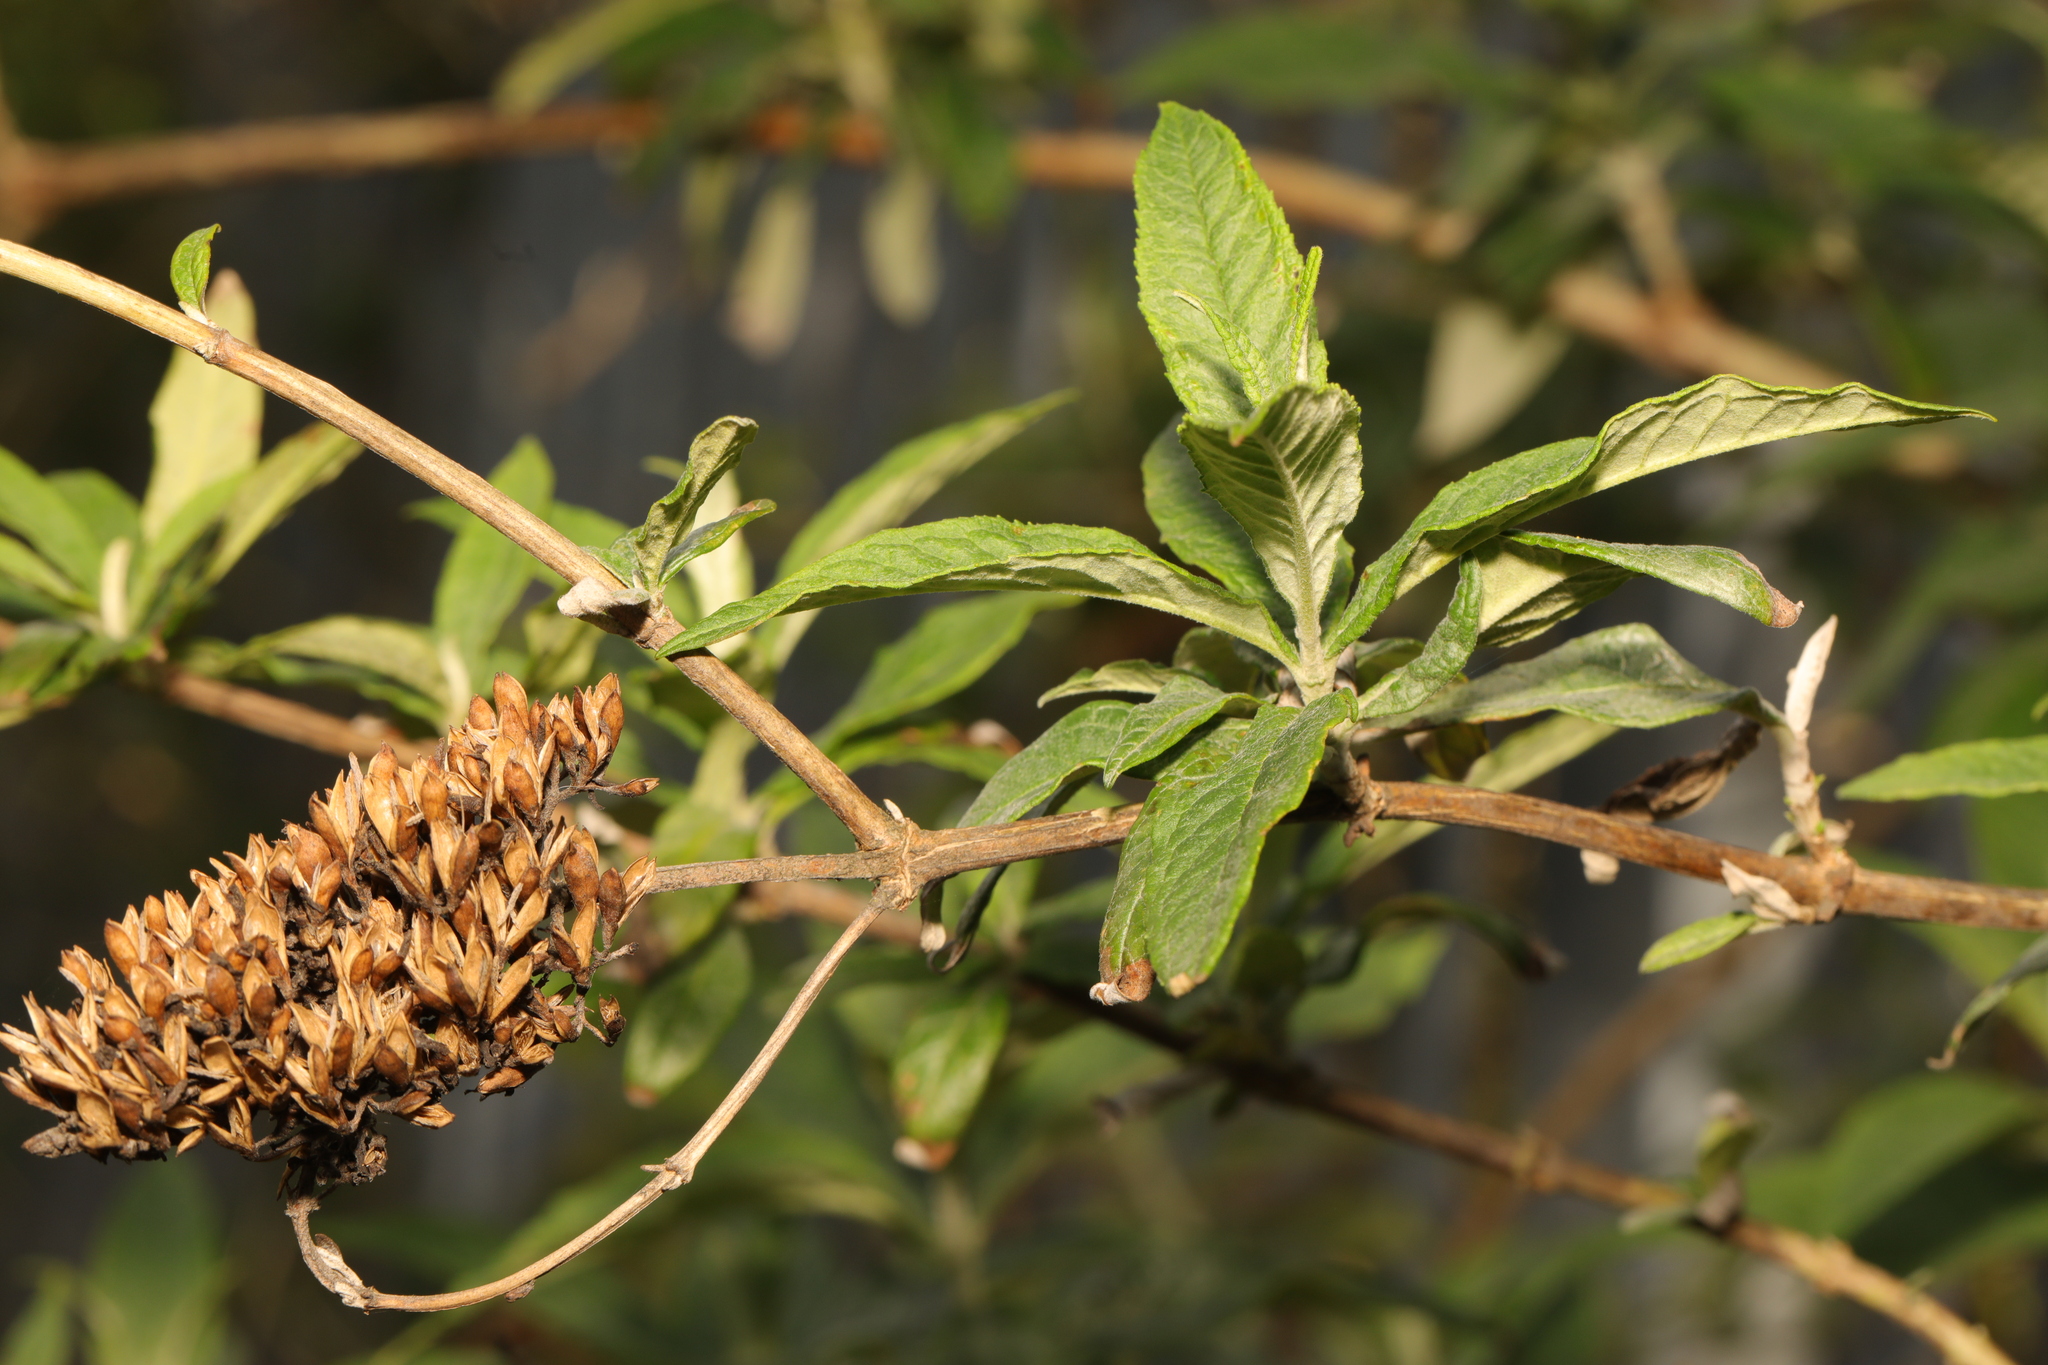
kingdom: Plantae
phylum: Tracheophyta
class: Magnoliopsida
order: Lamiales
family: Scrophulariaceae
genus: Buddleja
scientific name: Buddleja davidii
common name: Butterfly-bush
